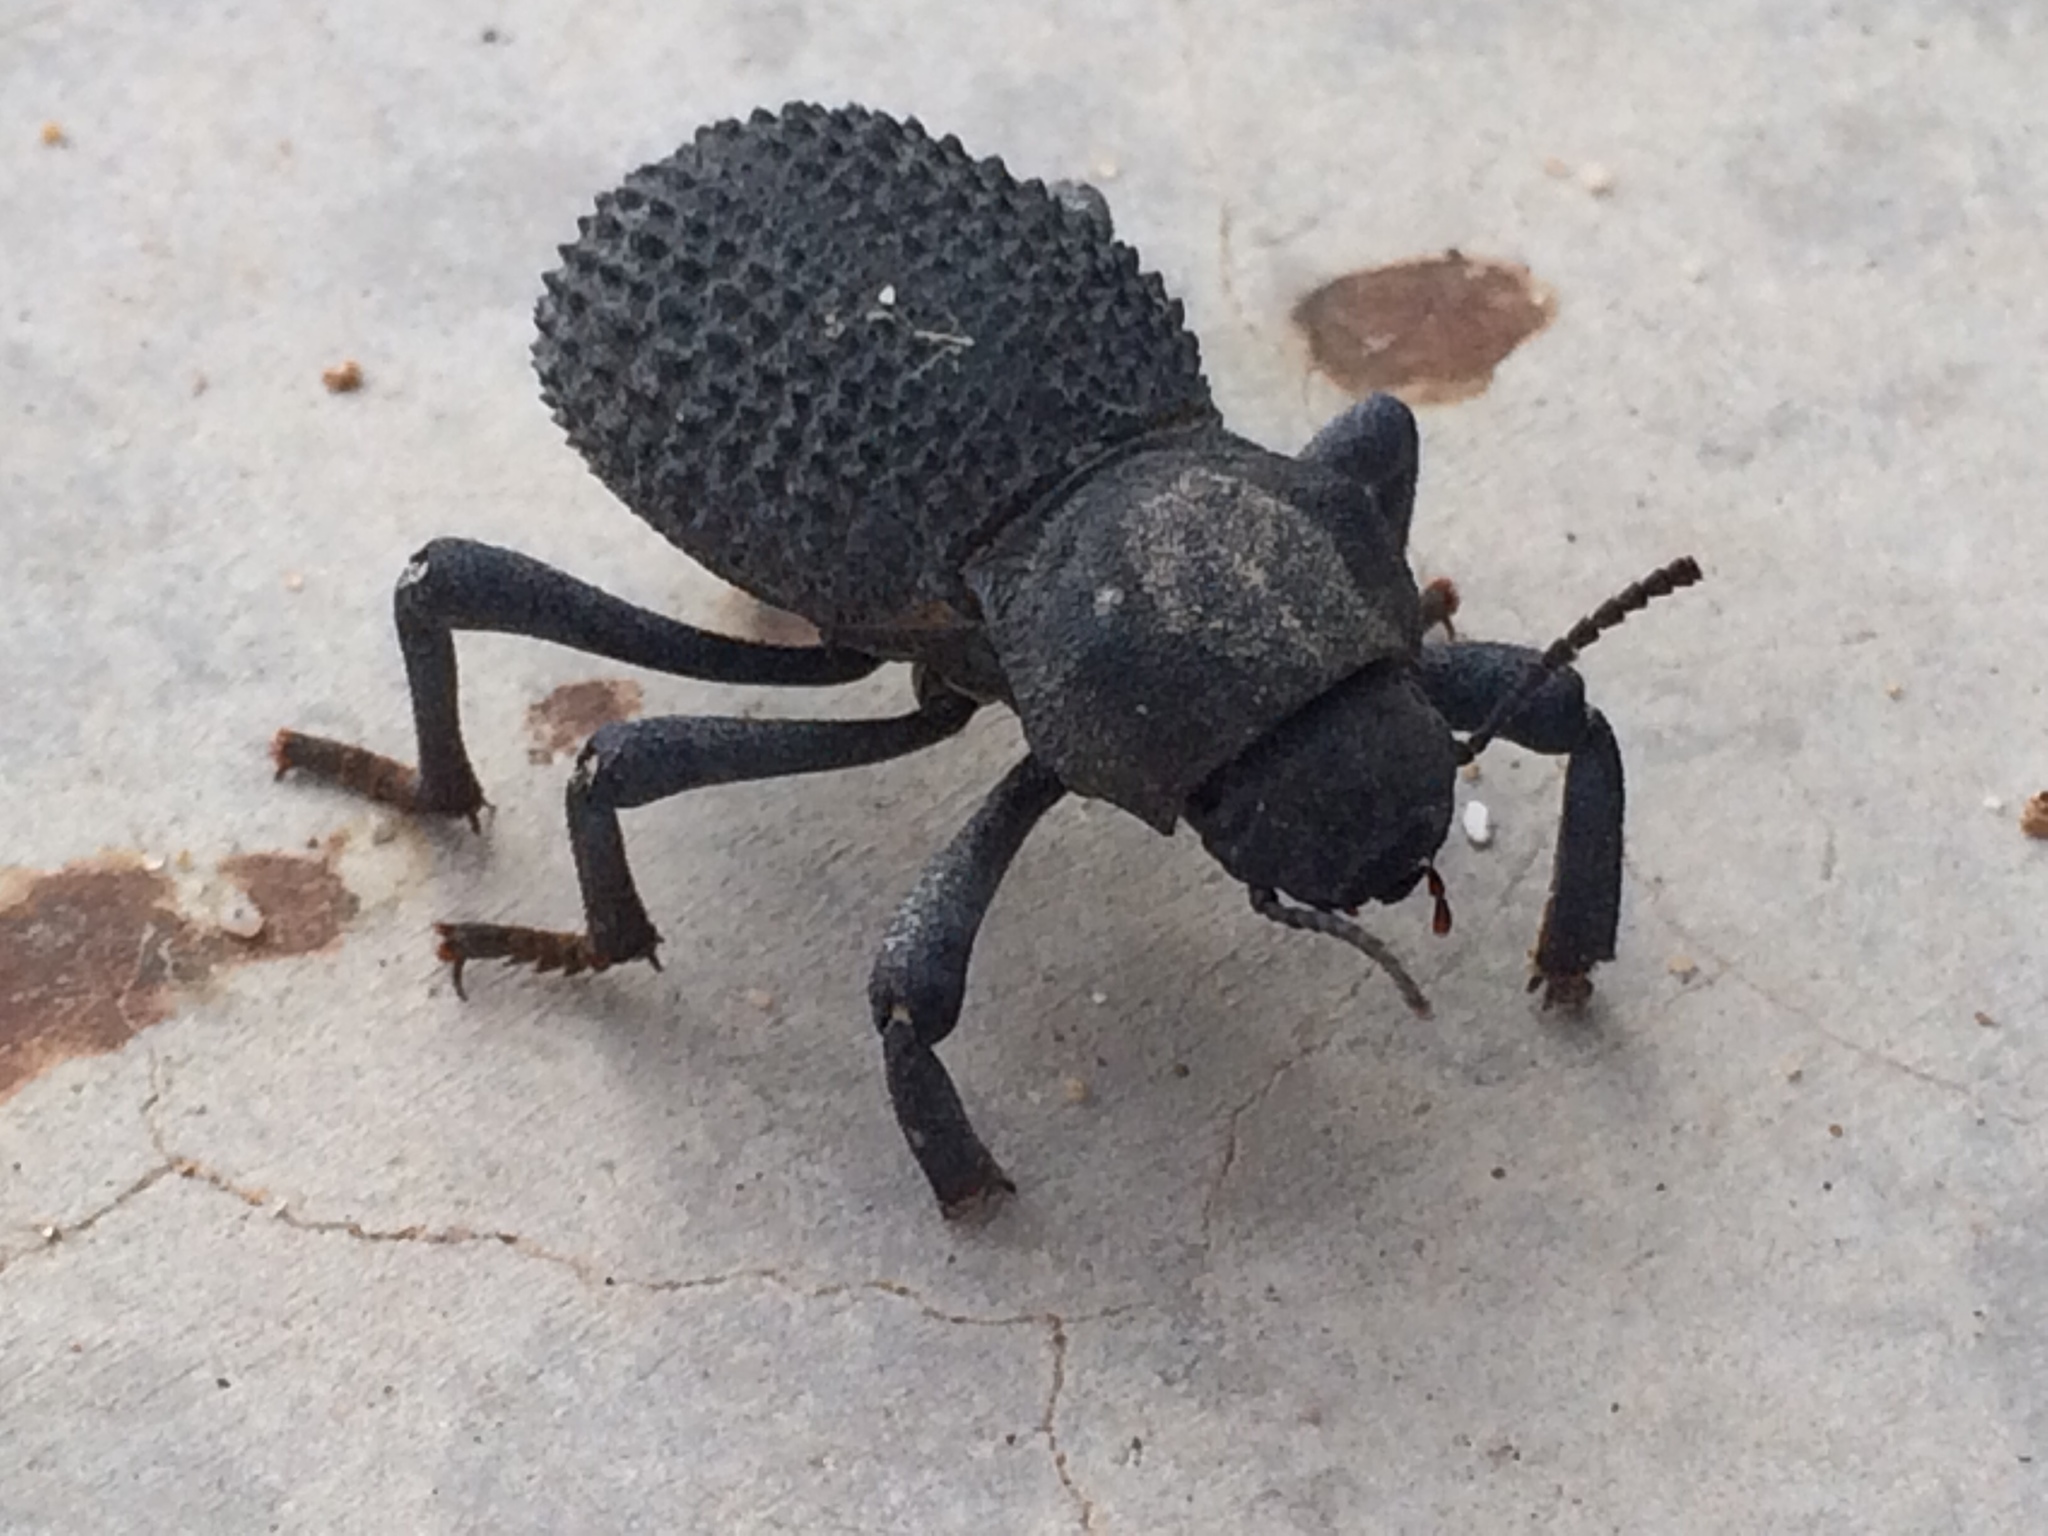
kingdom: Animalia
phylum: Arthropoda
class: Insecta
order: Coleoptera
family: Tenebrionidae
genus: Asbolus
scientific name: Asbolus verrucosus
